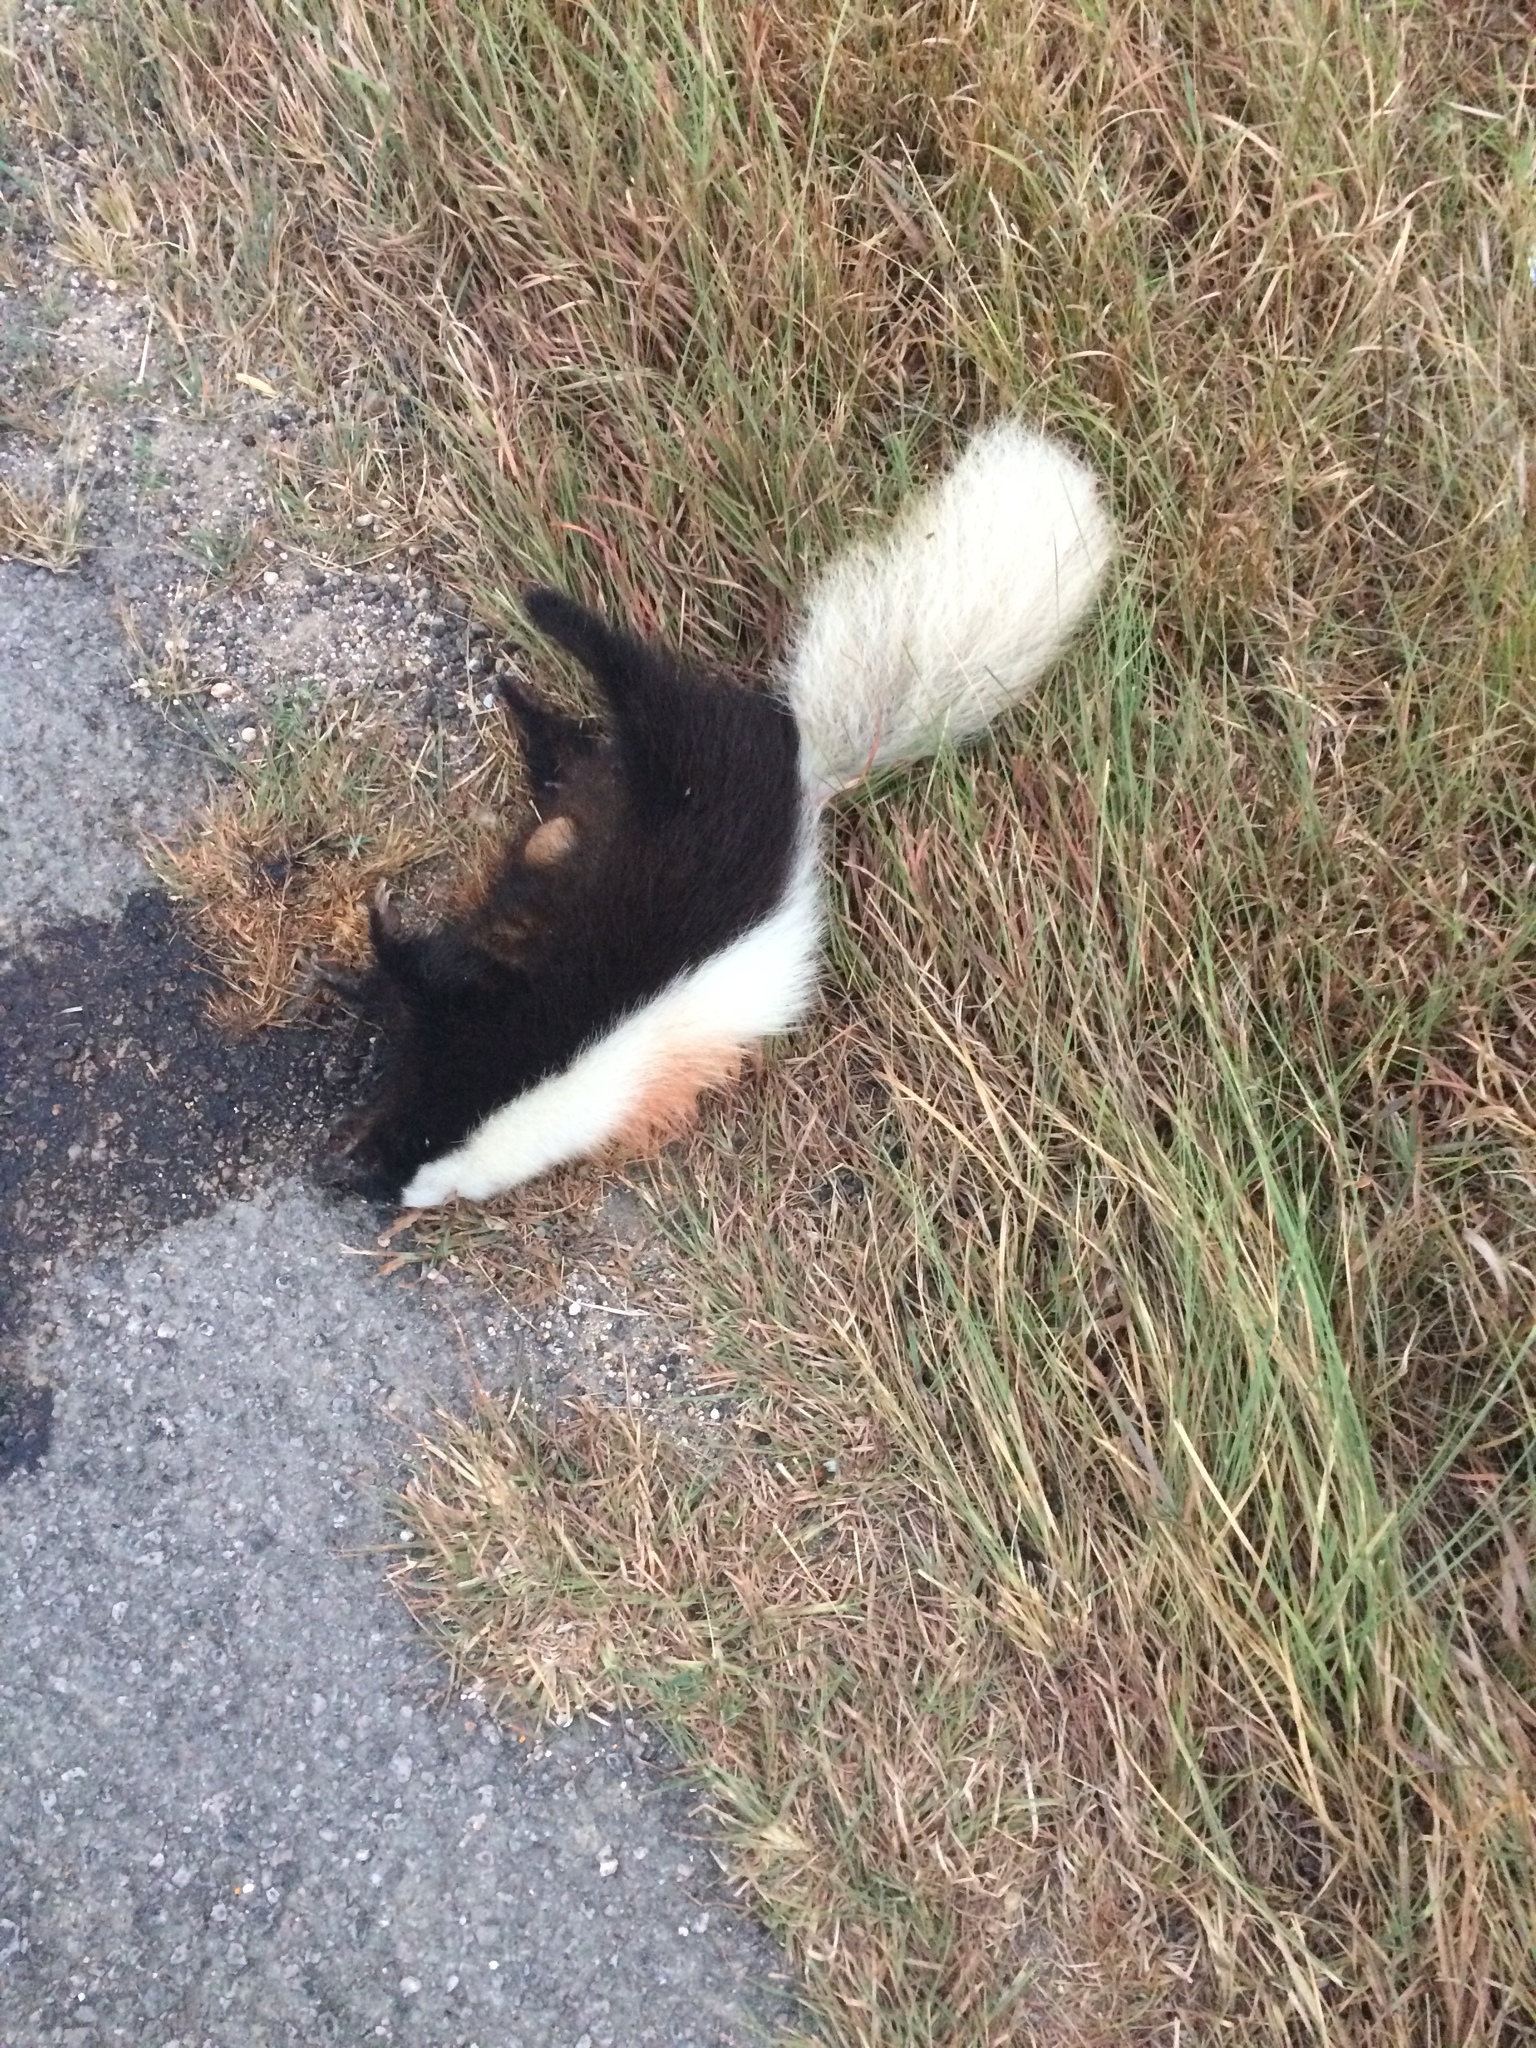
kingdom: Animalia
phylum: Chordata
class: Mammalia
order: Carnivora
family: Mephitidae
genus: Conepatus
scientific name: Conepatus leuconotus
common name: Eastern hog-nosed skunk
